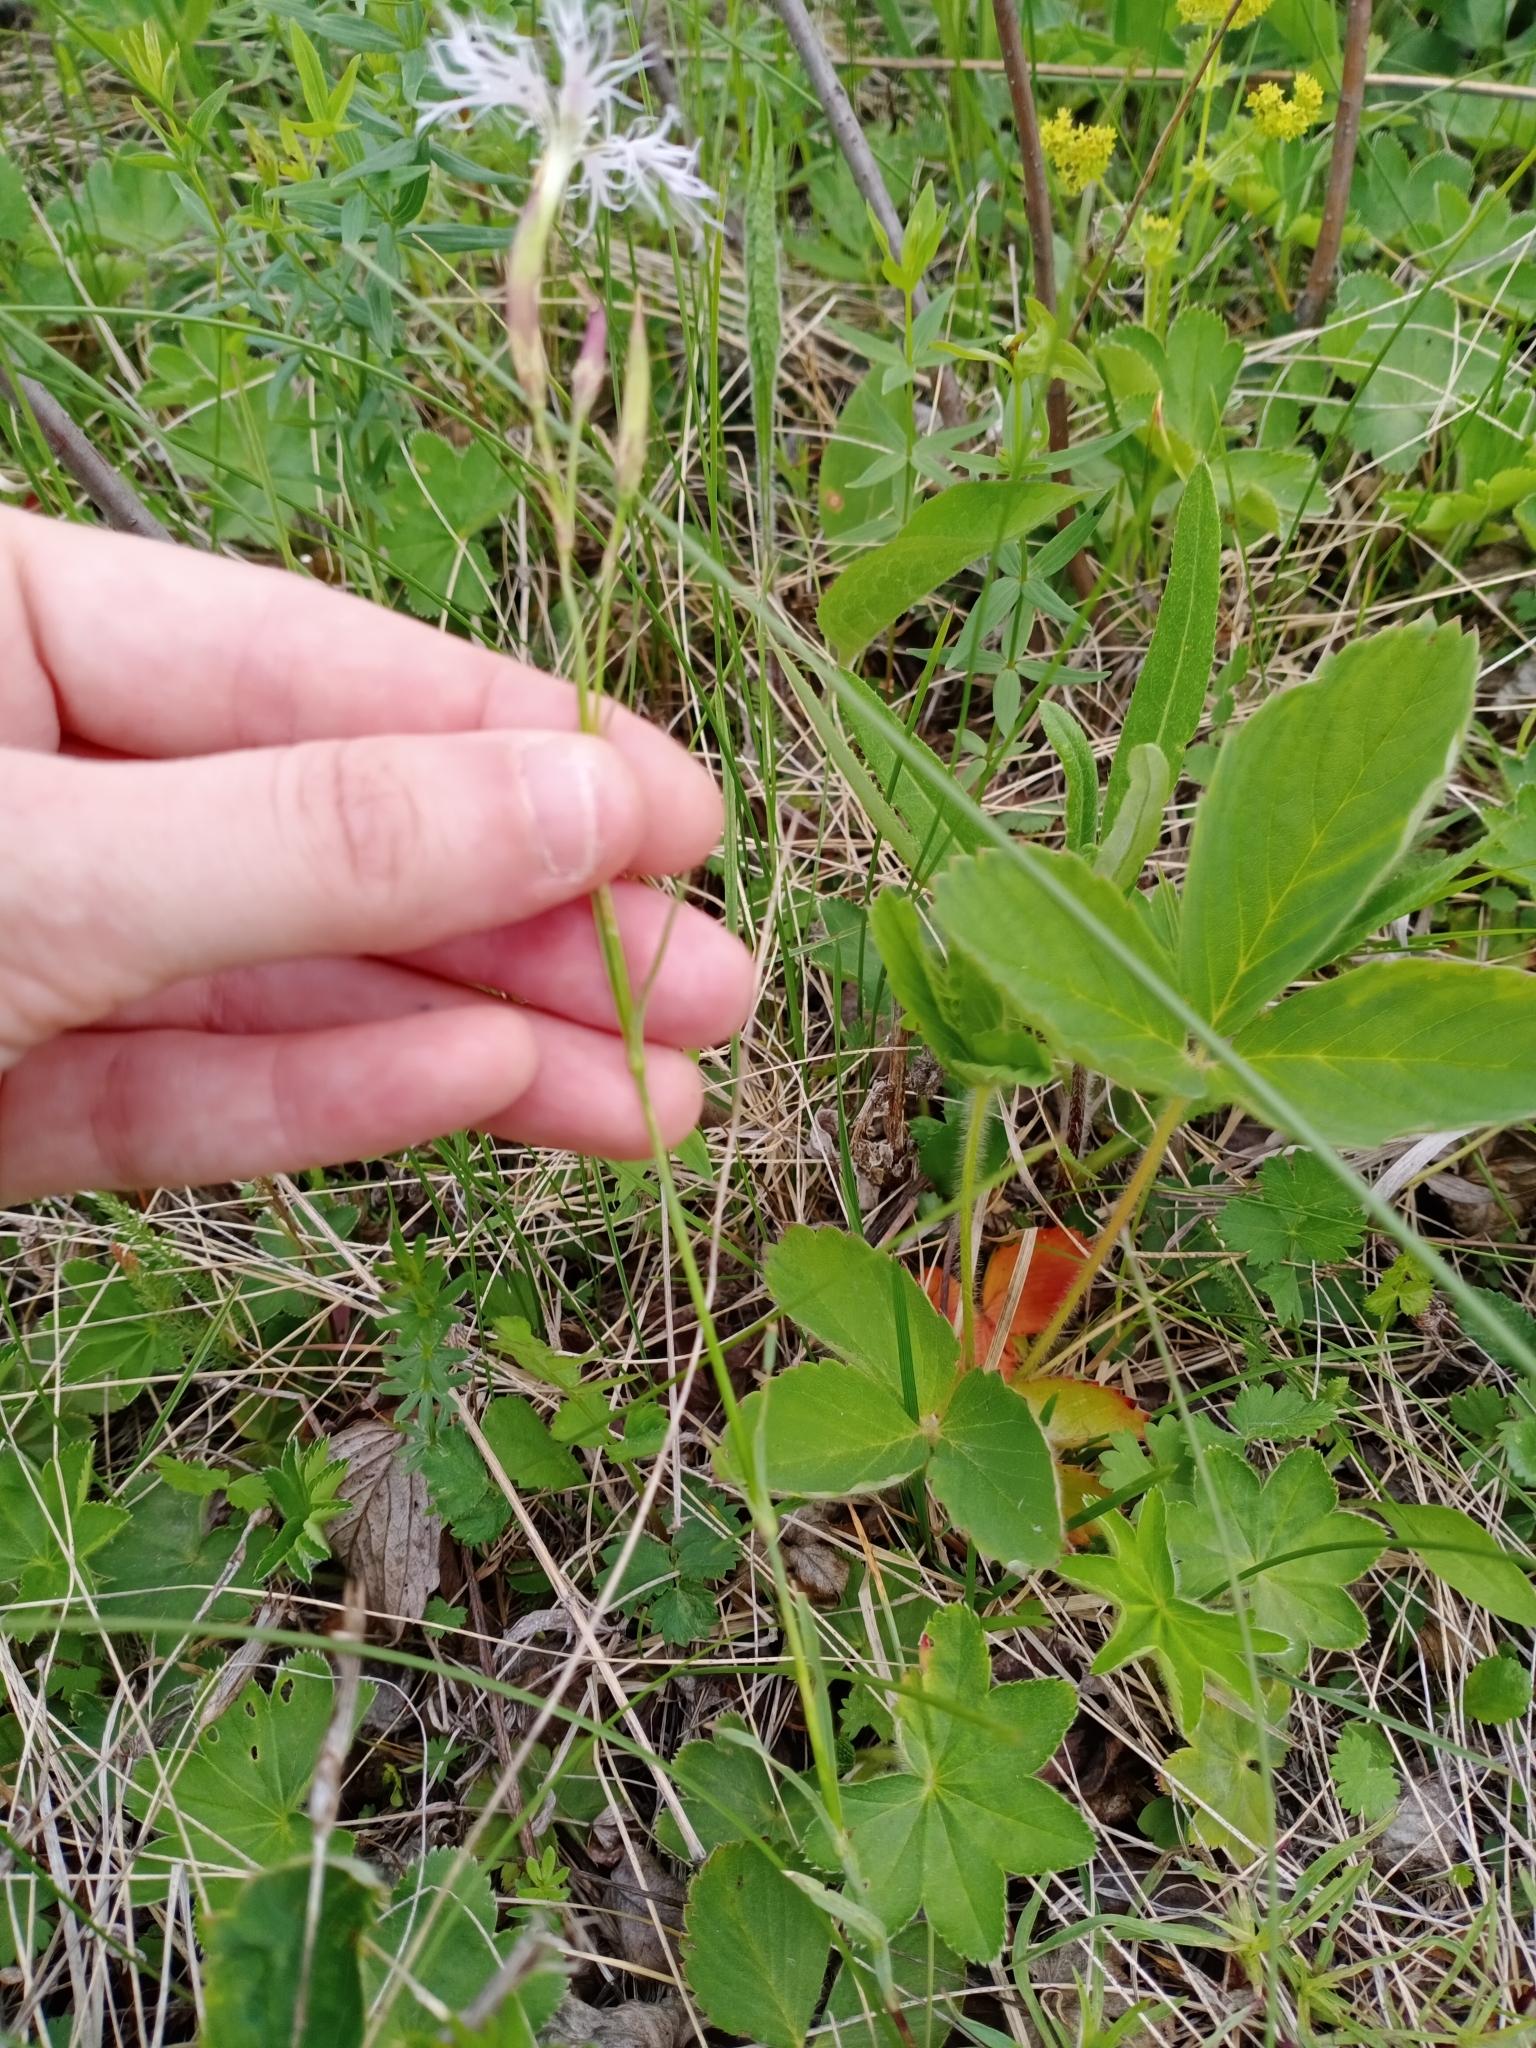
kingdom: Plantae
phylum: Tracheophyta
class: Magnoliopsida
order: Caryophyllales
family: Caryophyllaceae
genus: Dianthus
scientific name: Dianthus superbus
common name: Fringed pink
